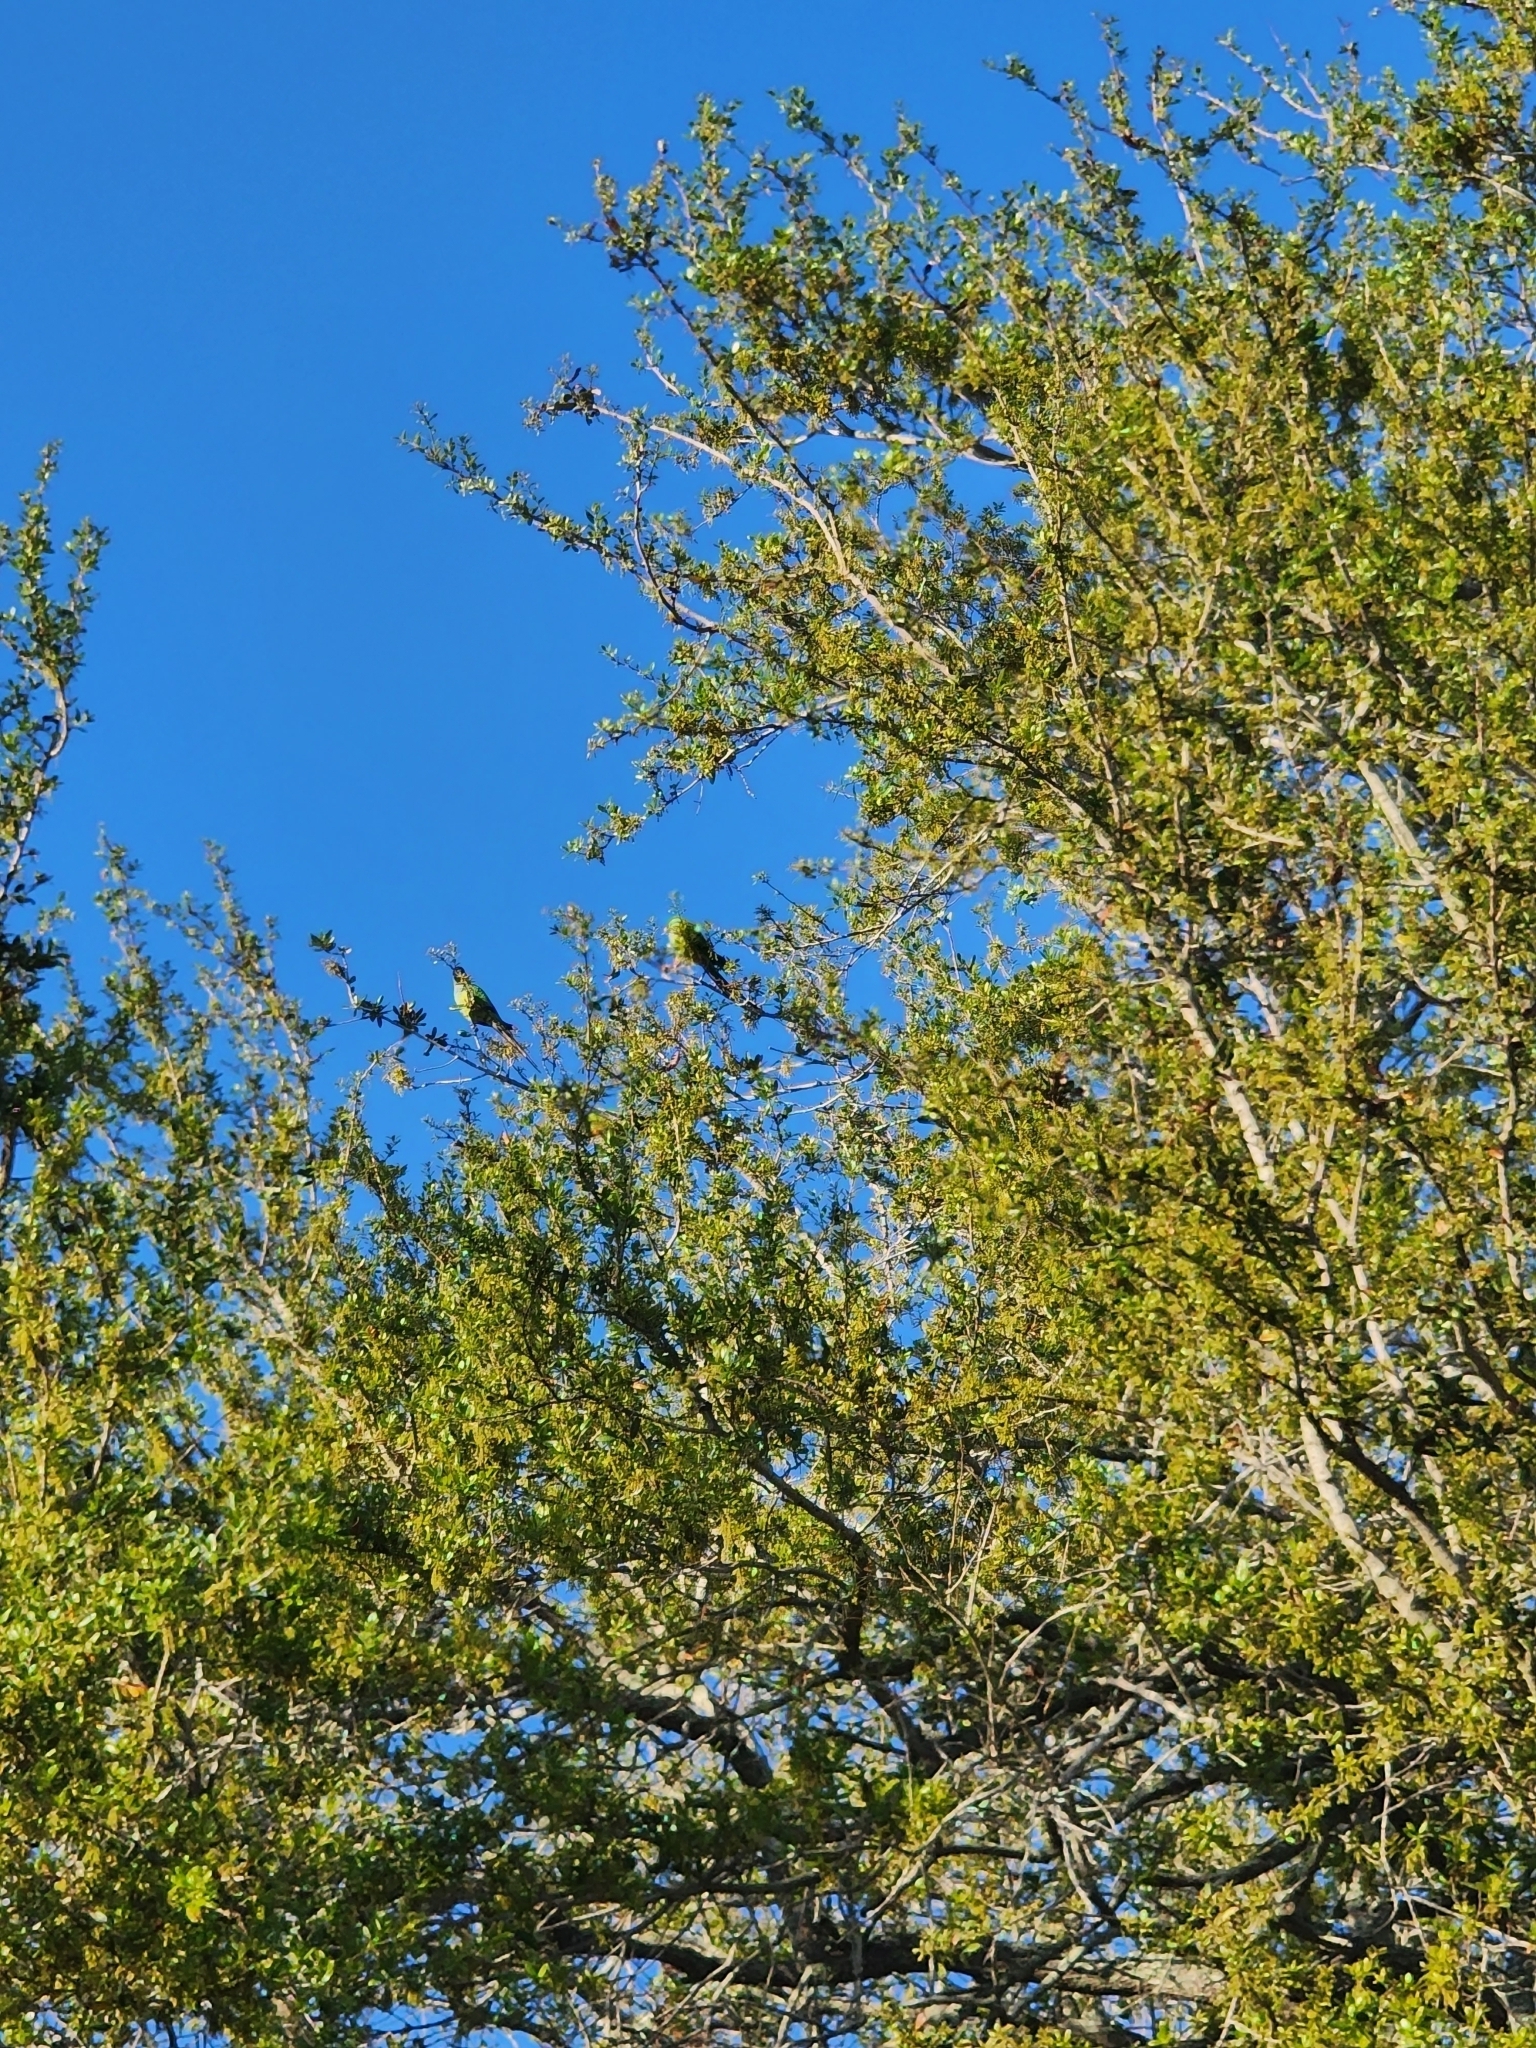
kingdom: Animalia
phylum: Chordata
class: Aves
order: Psittaciformes
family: Psittacidae
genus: Nandayus
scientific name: Nandayus nenday
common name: Nanday parakeet
